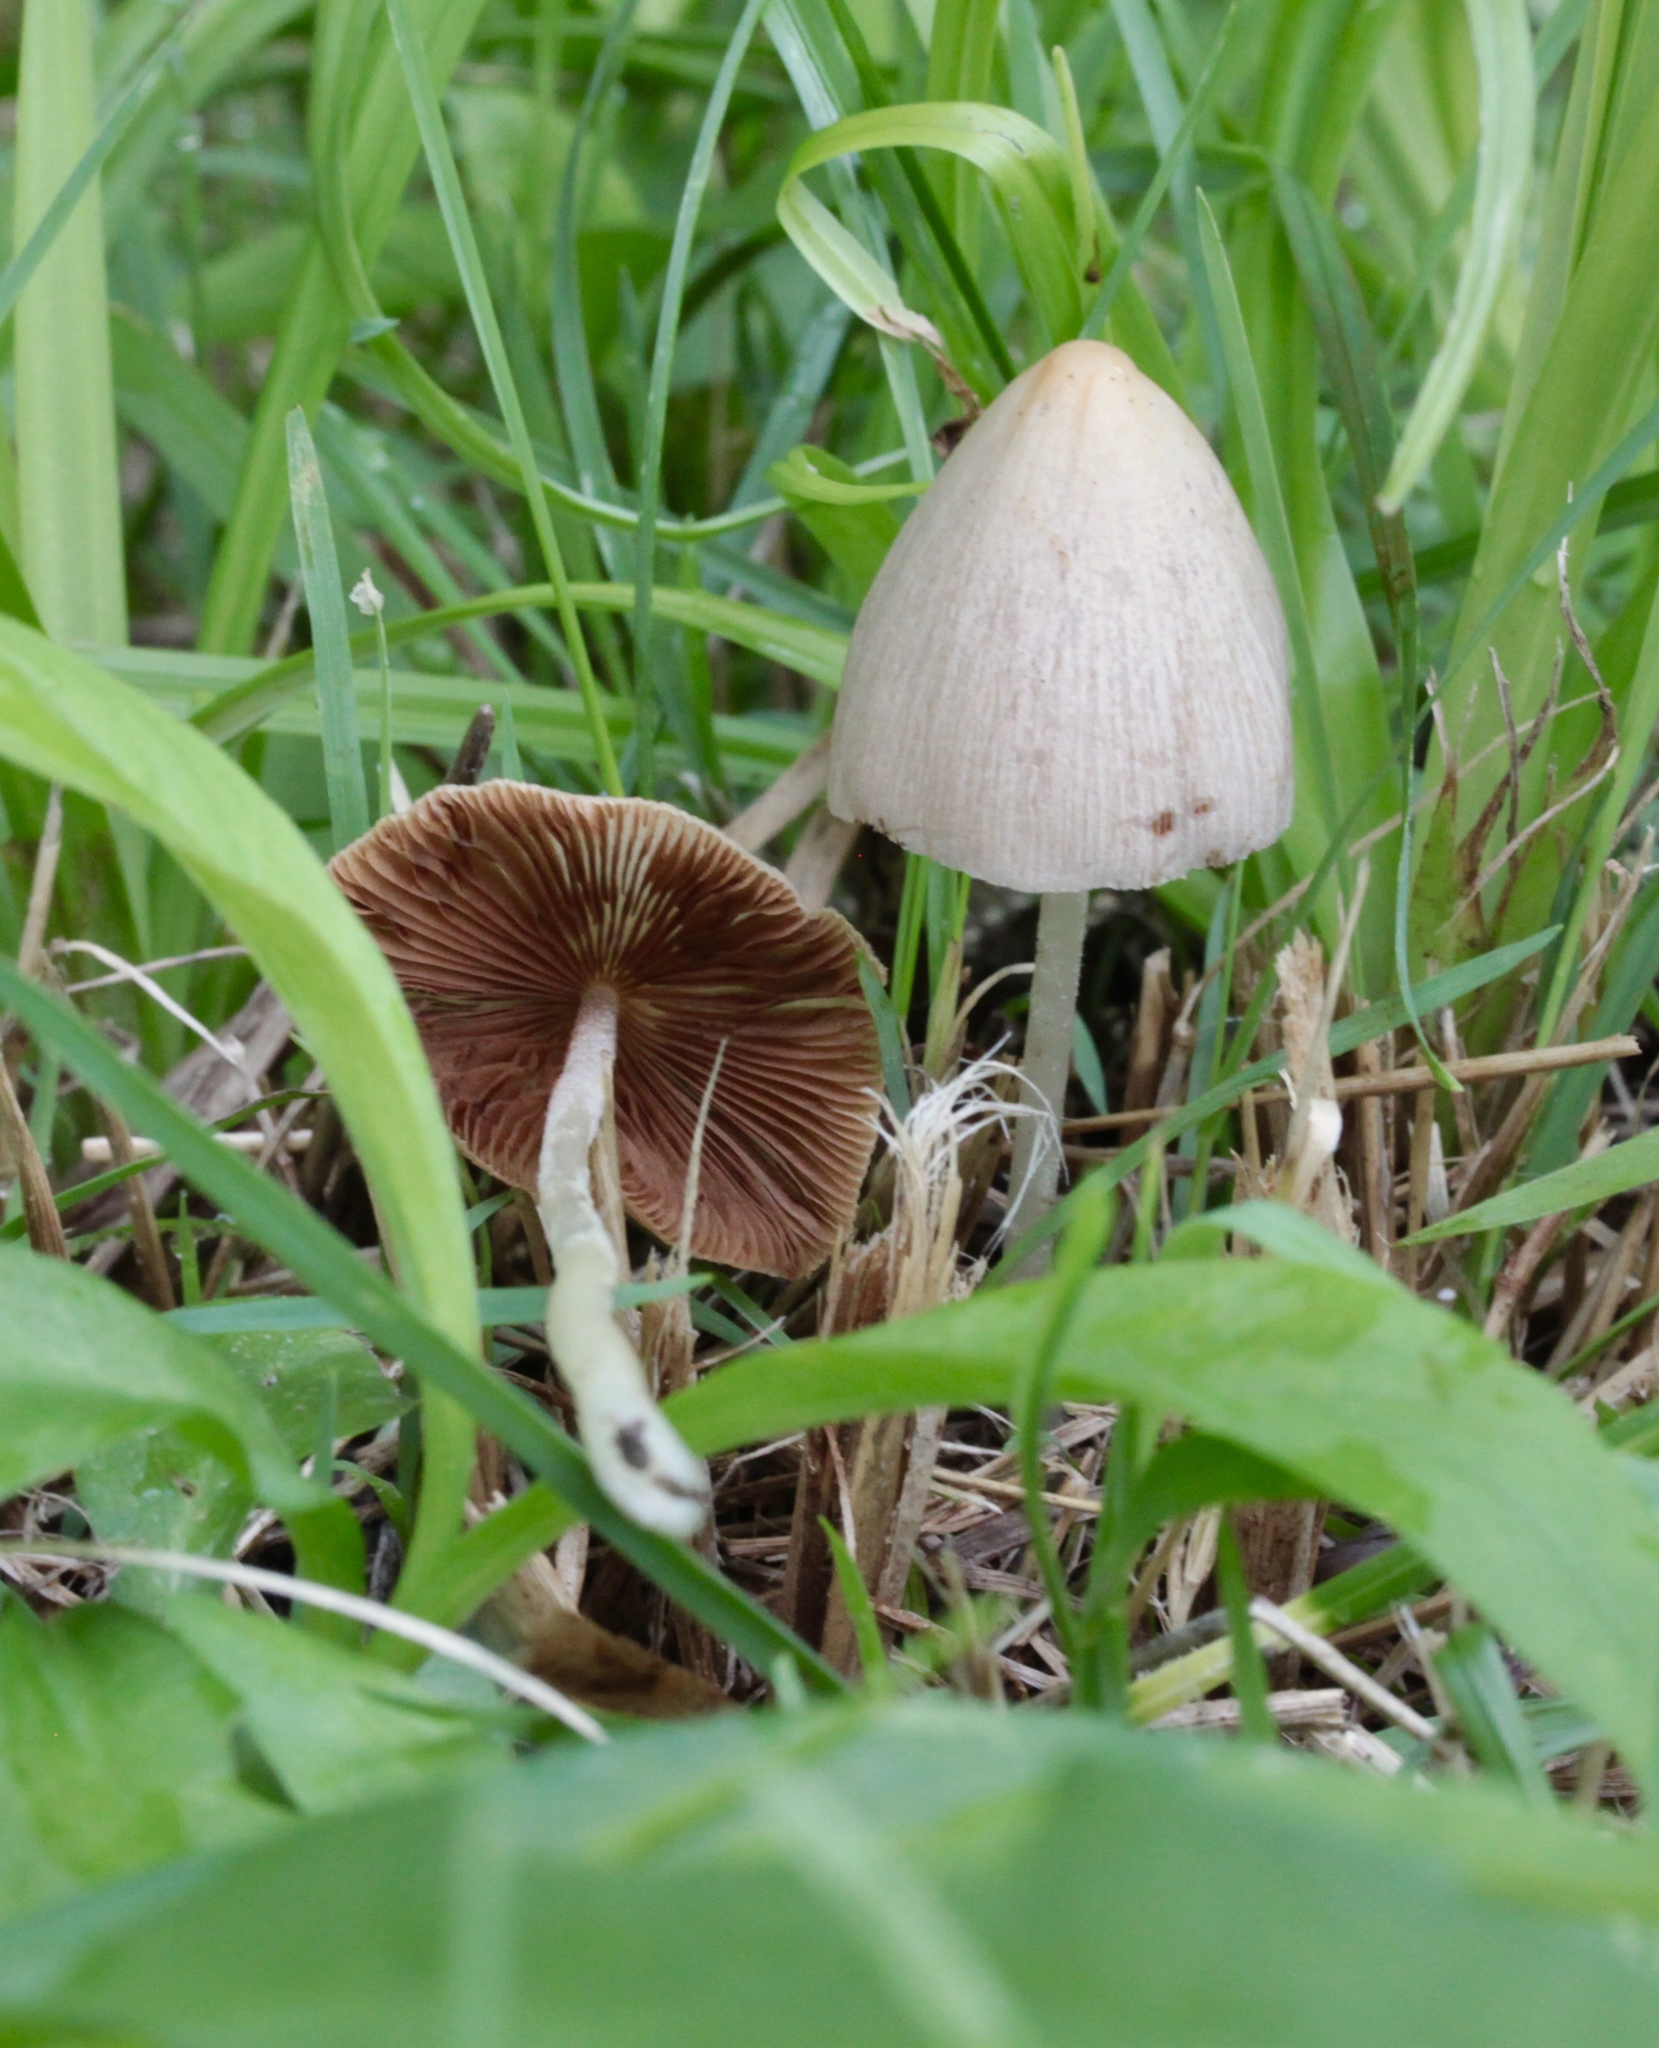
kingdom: Fungi
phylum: Basidiomycota
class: Agaricomycetes
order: Agaricales
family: Bolbitiaceae
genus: Conocybe
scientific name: Conocybe apala
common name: Milky conecap
